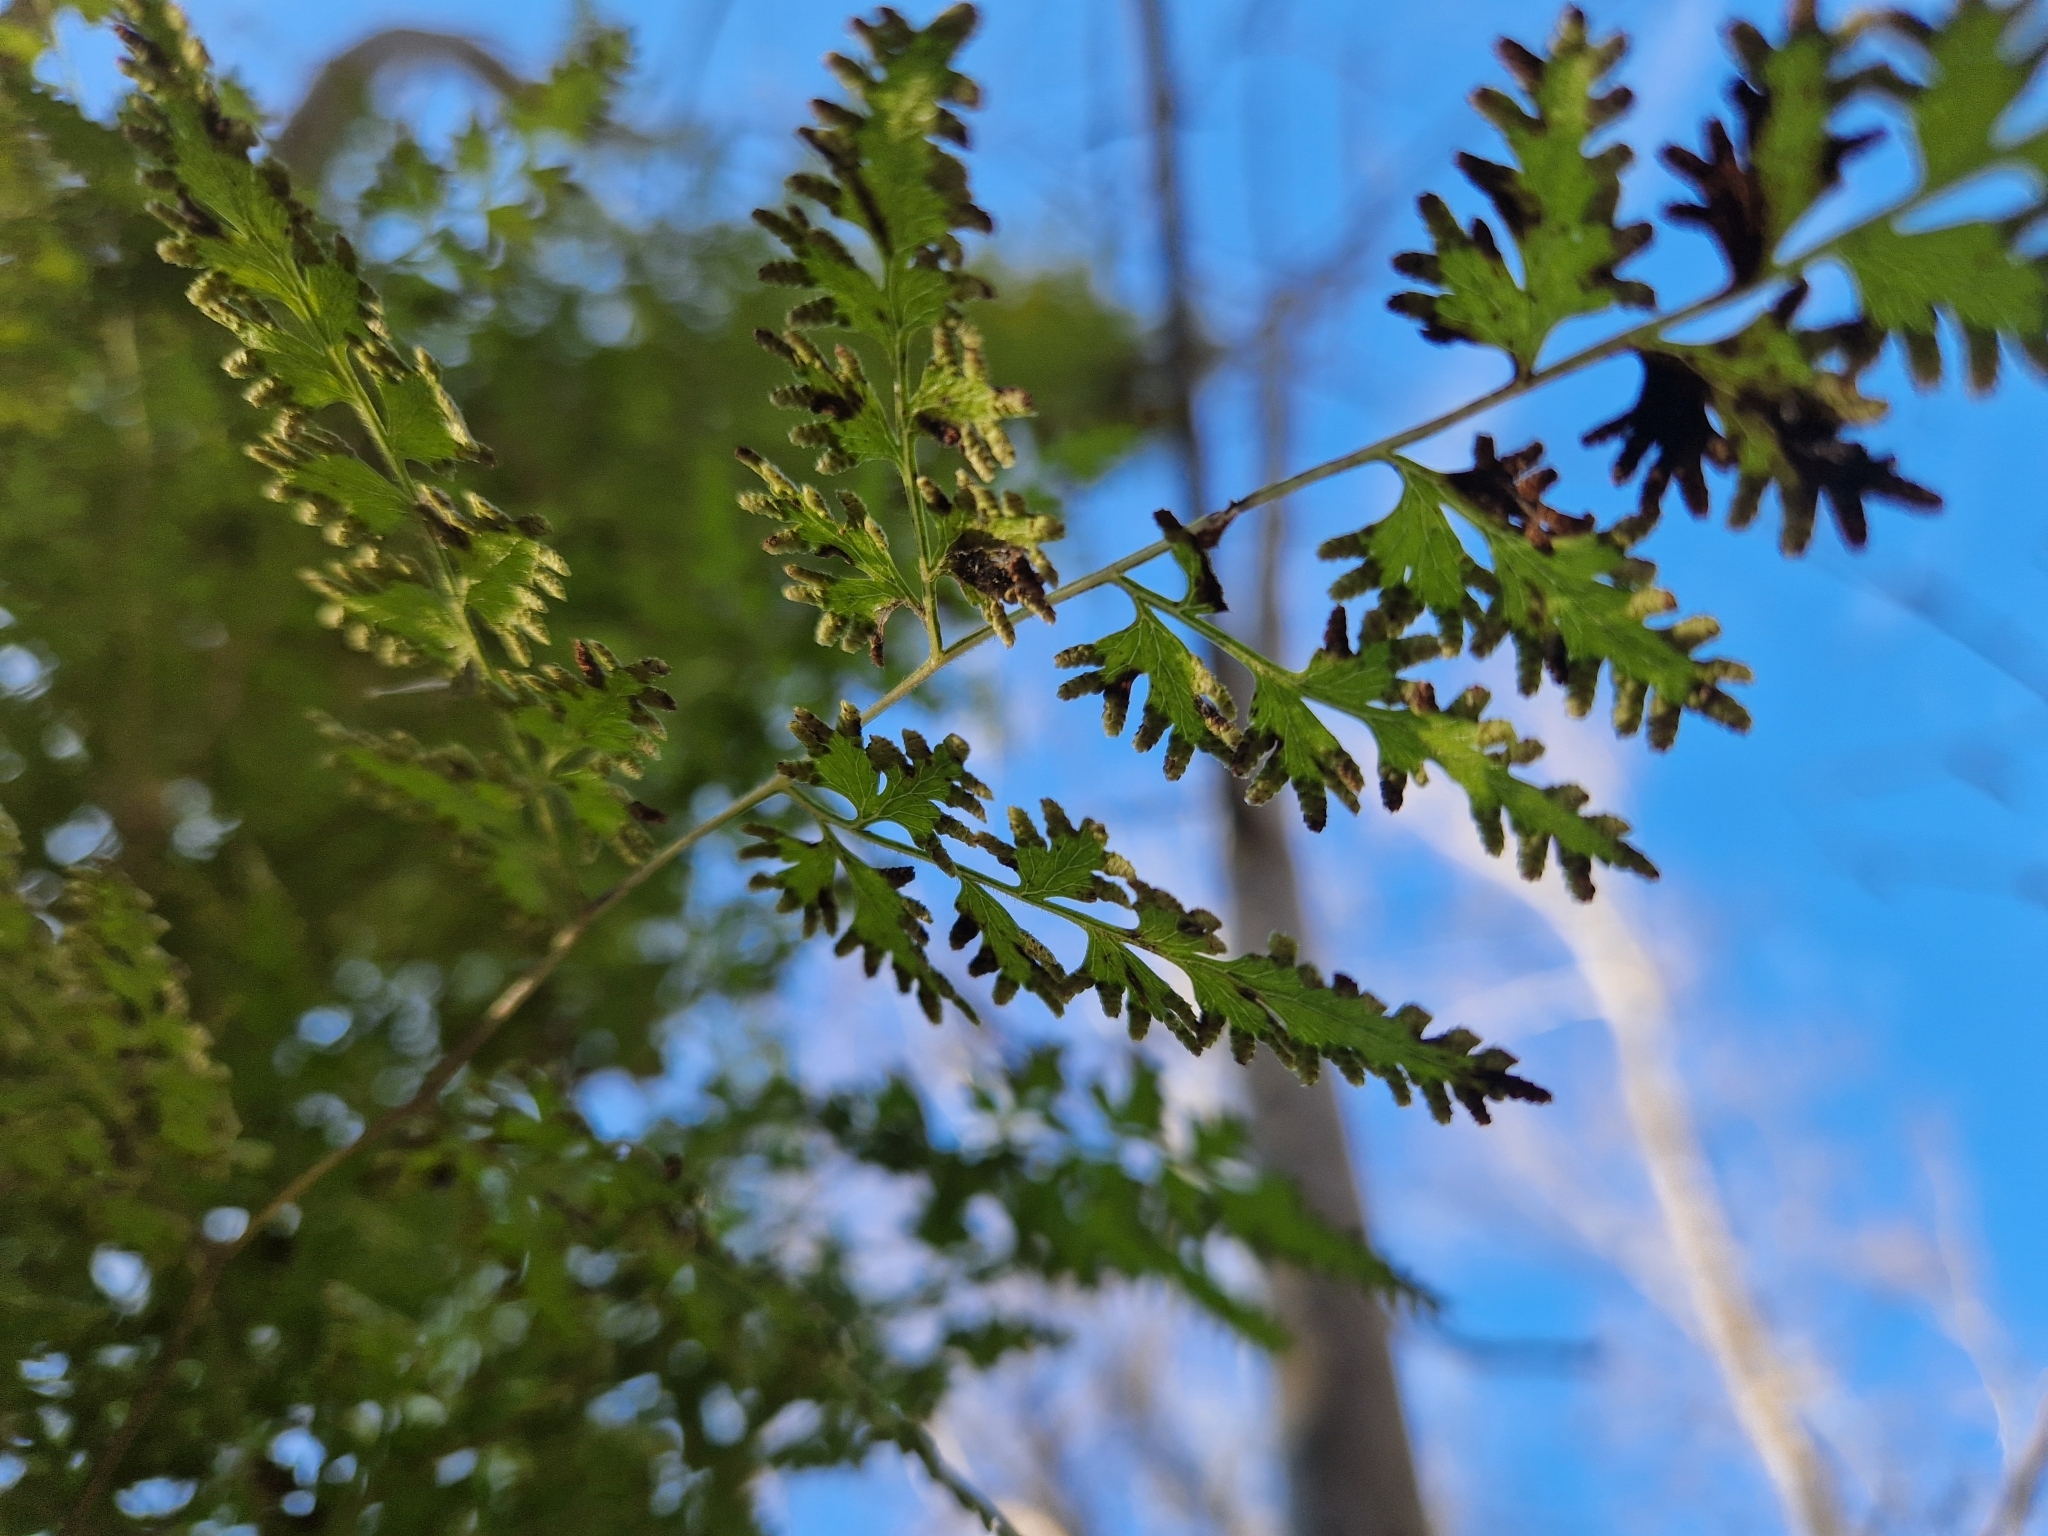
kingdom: Plantae
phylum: Tracheophyta
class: Polypodiopsida
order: Schizaeales
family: Lygodiaceae
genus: Lygodium
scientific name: Lygodium japonicum
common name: Japanese climbing fern
